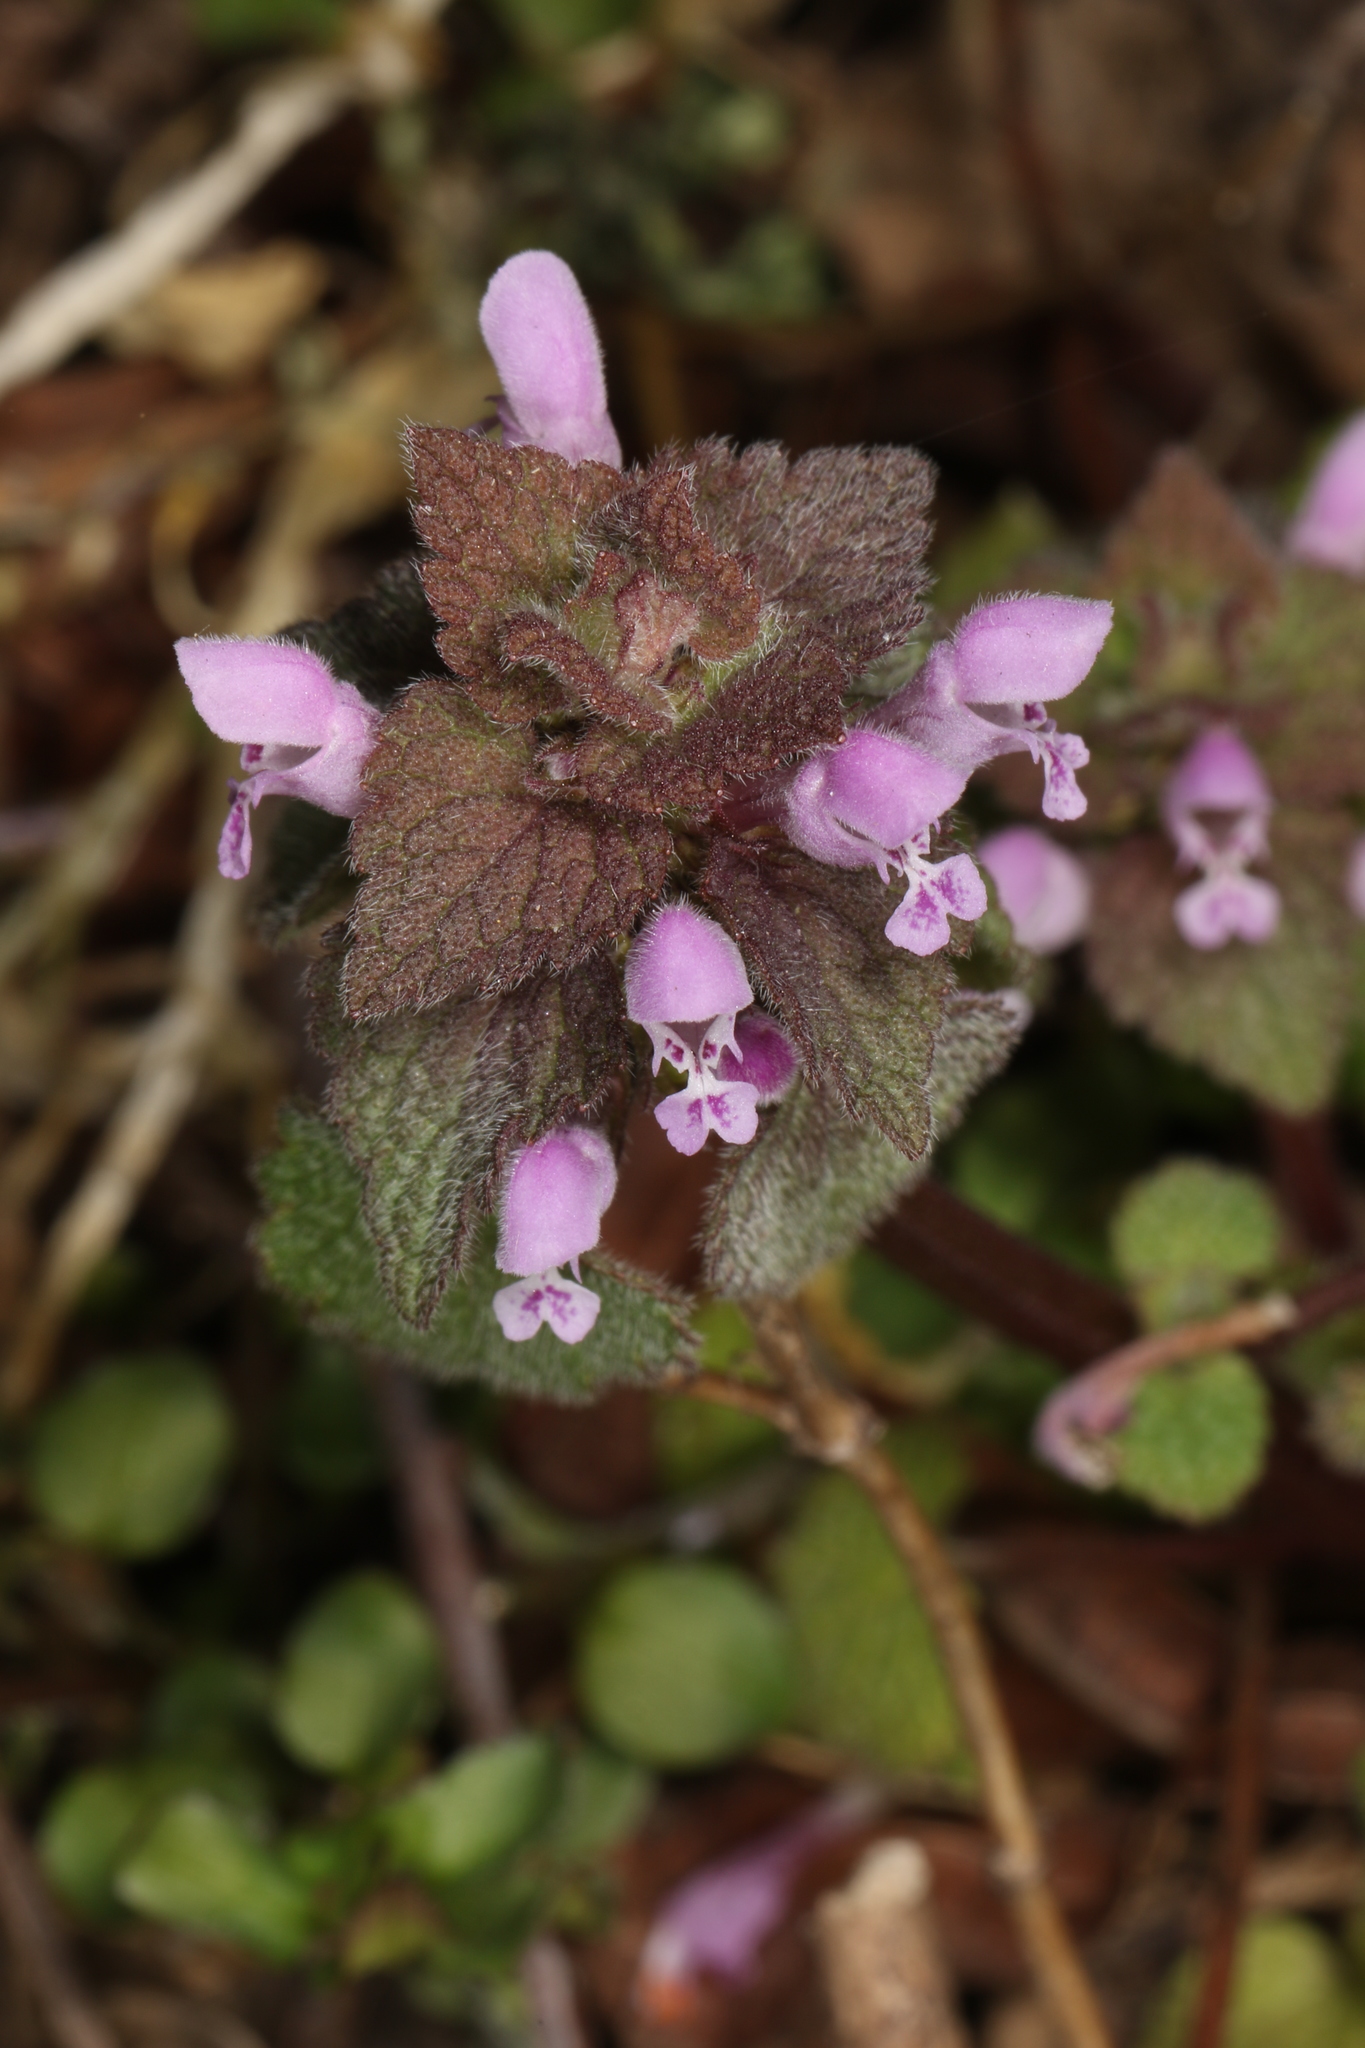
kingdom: Plantae
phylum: Tracheophyta
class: Magnoliopsida
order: Lamiales
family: Lamiaceae
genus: Lamium
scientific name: Lamium purpureum
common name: Red dead-nettle
